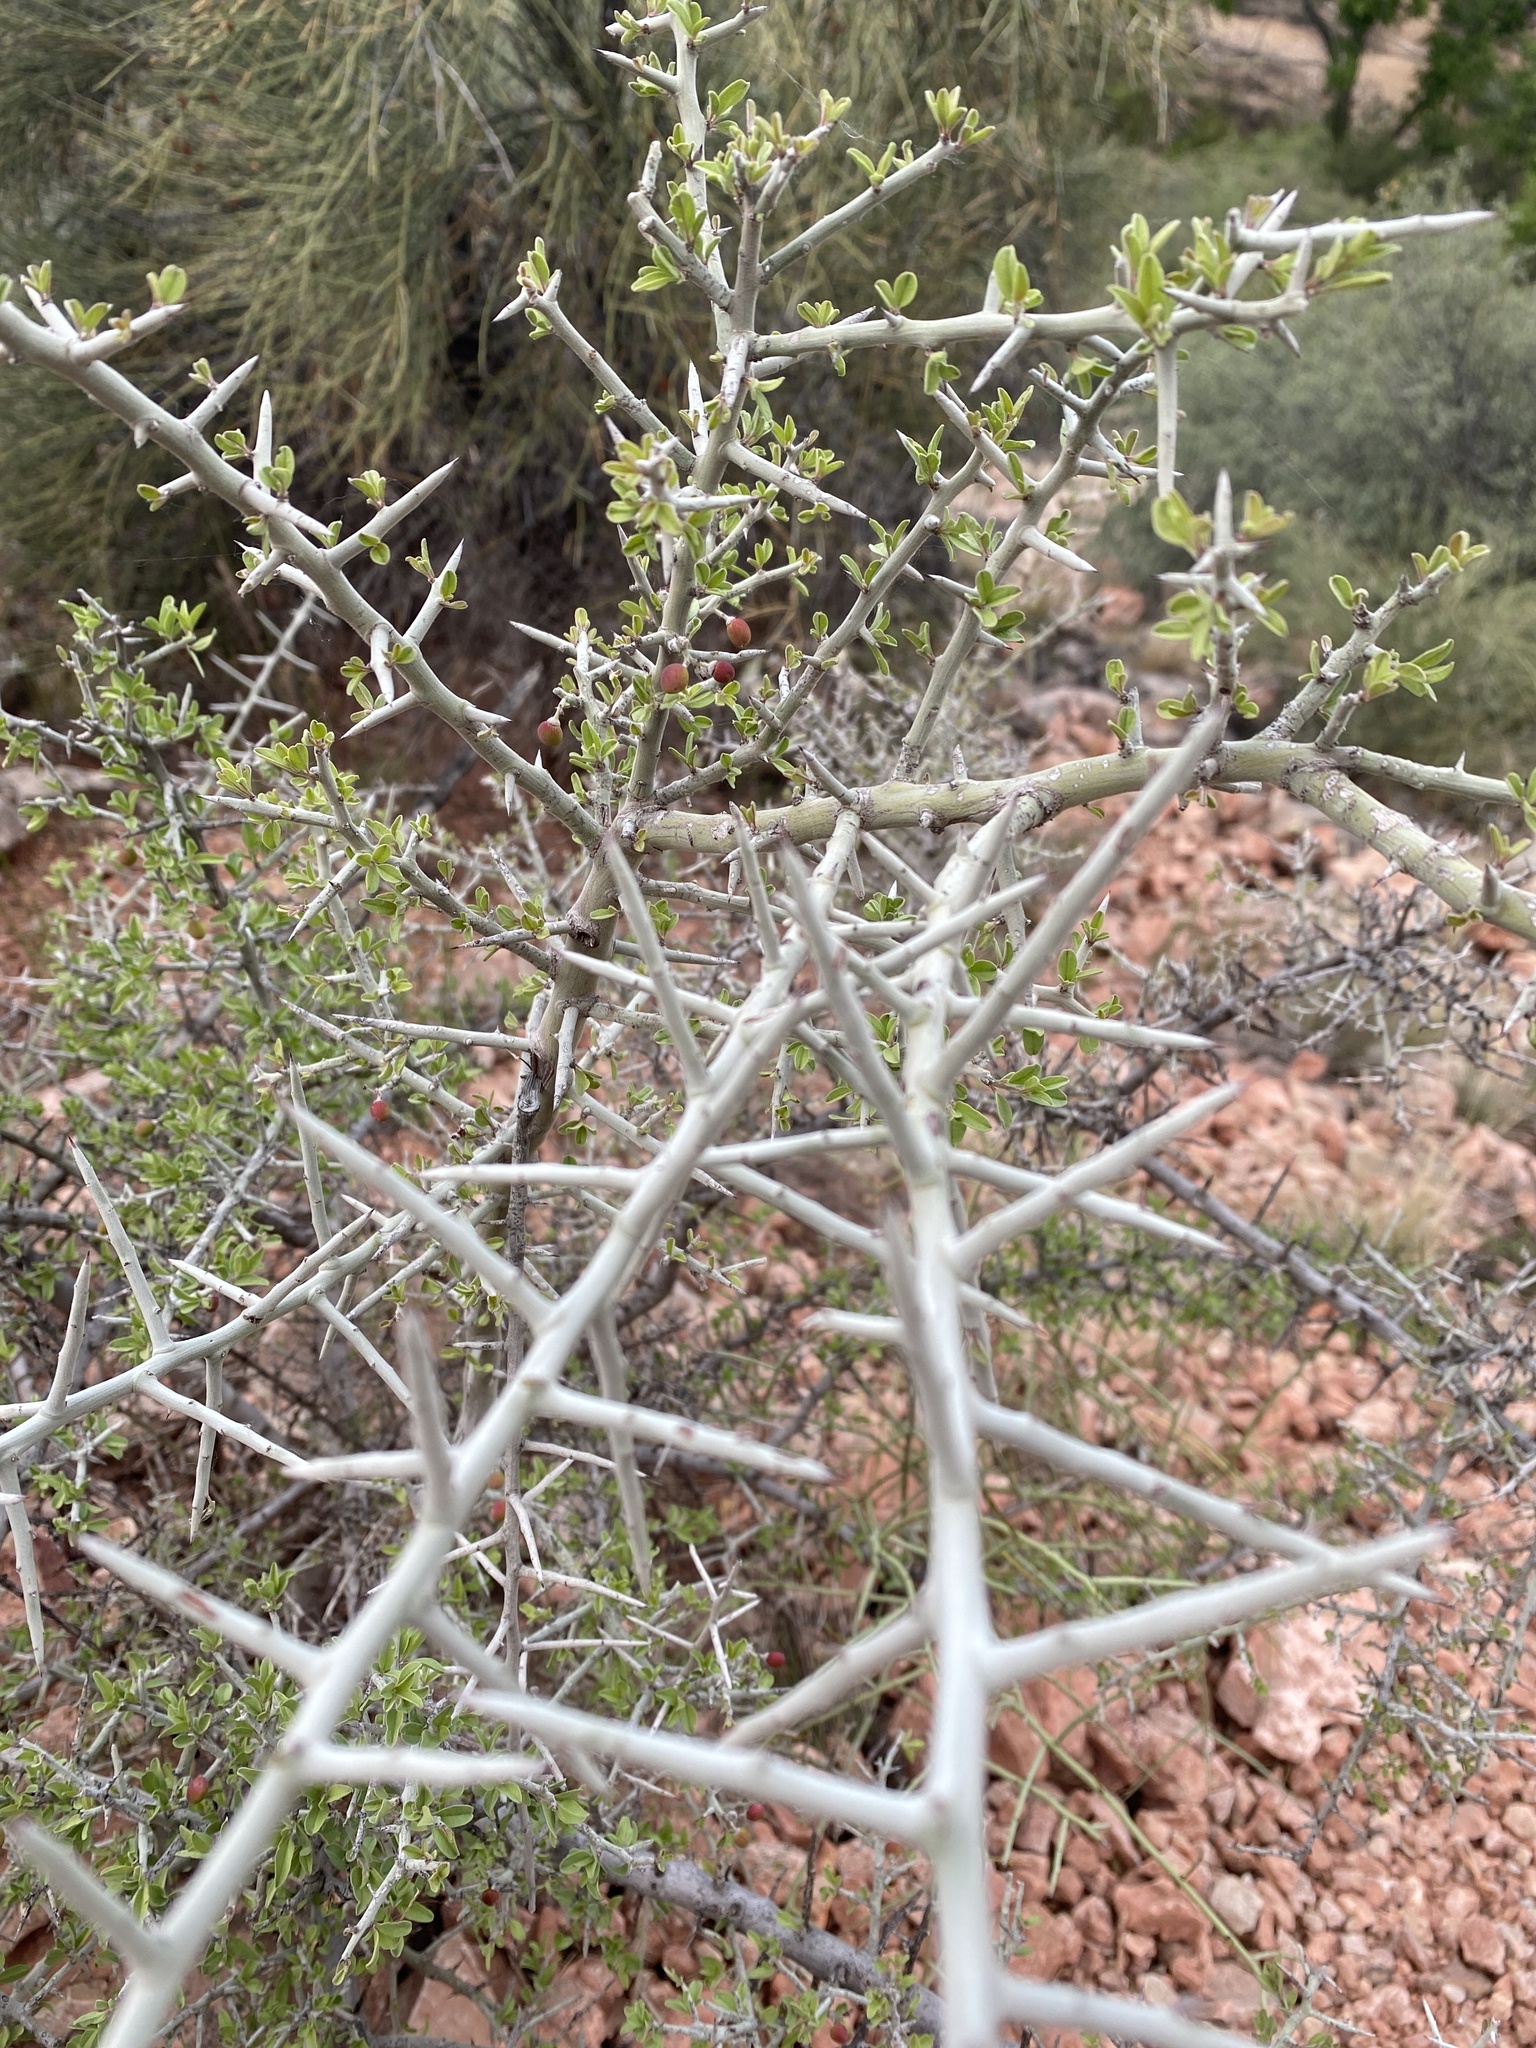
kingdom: Plantae
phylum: Tracheophyta
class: Magnoliopsida
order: Rosales
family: Rhamnaceae
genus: Sarcomphalus
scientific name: Sarcomphalus obtusifolius
